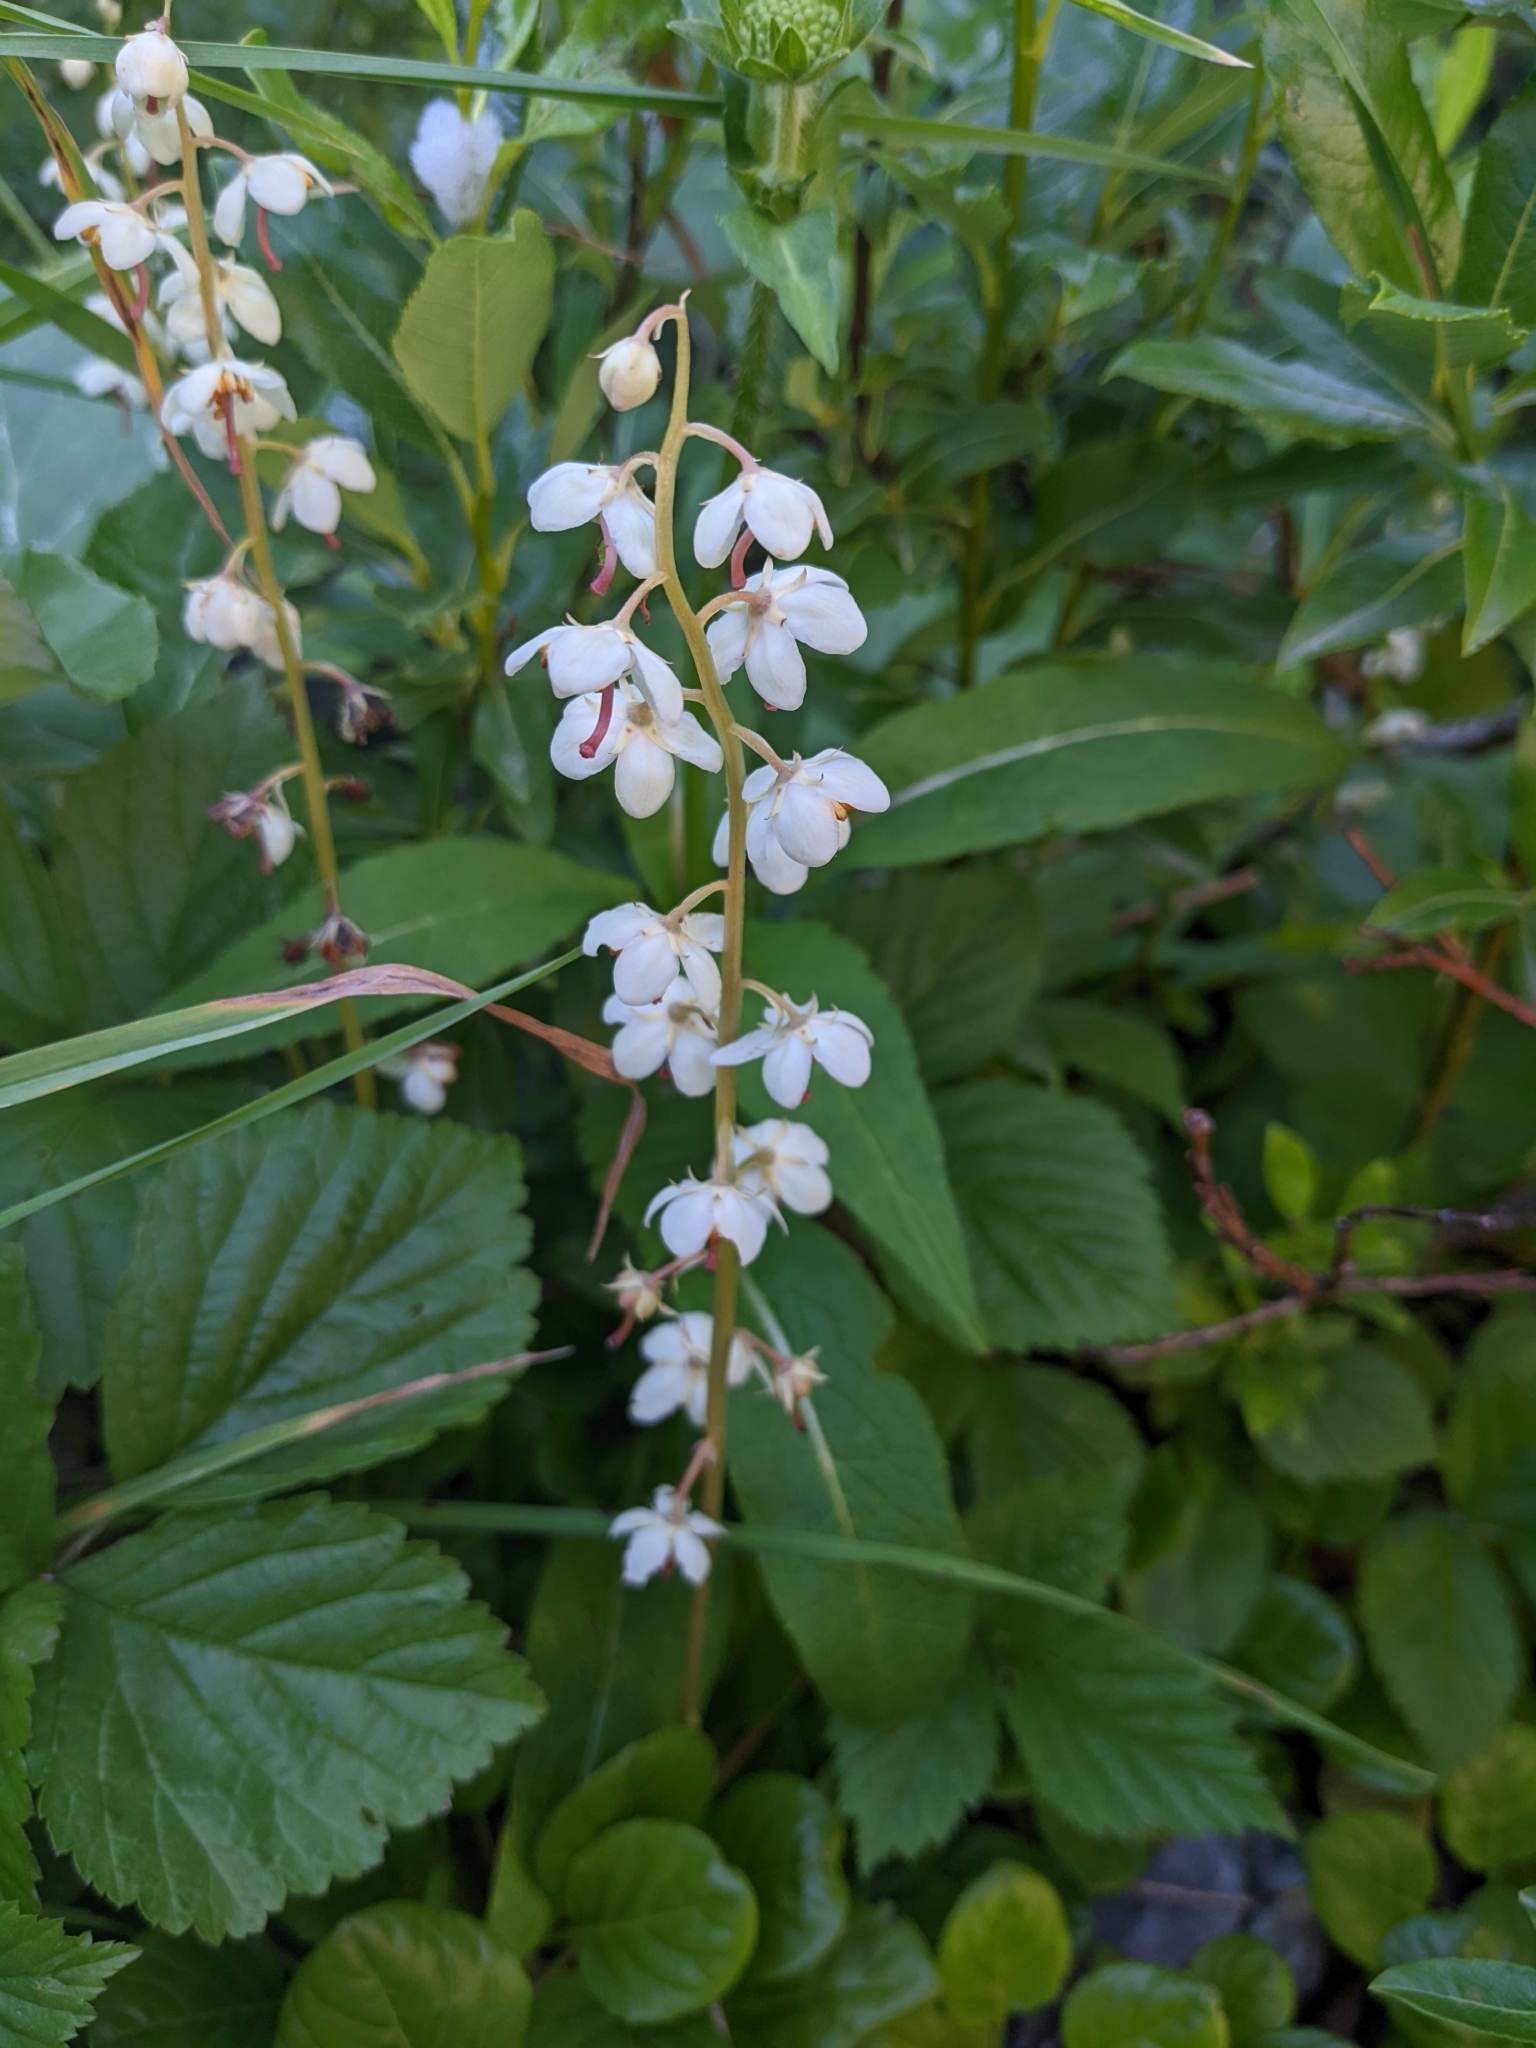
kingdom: Plantae
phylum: Tracheophyta
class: Magnoliopsida
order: Ericales
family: Ericaceae
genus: Pyrola
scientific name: Pyrola rotundifolia
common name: Round-leaved wintergreen
